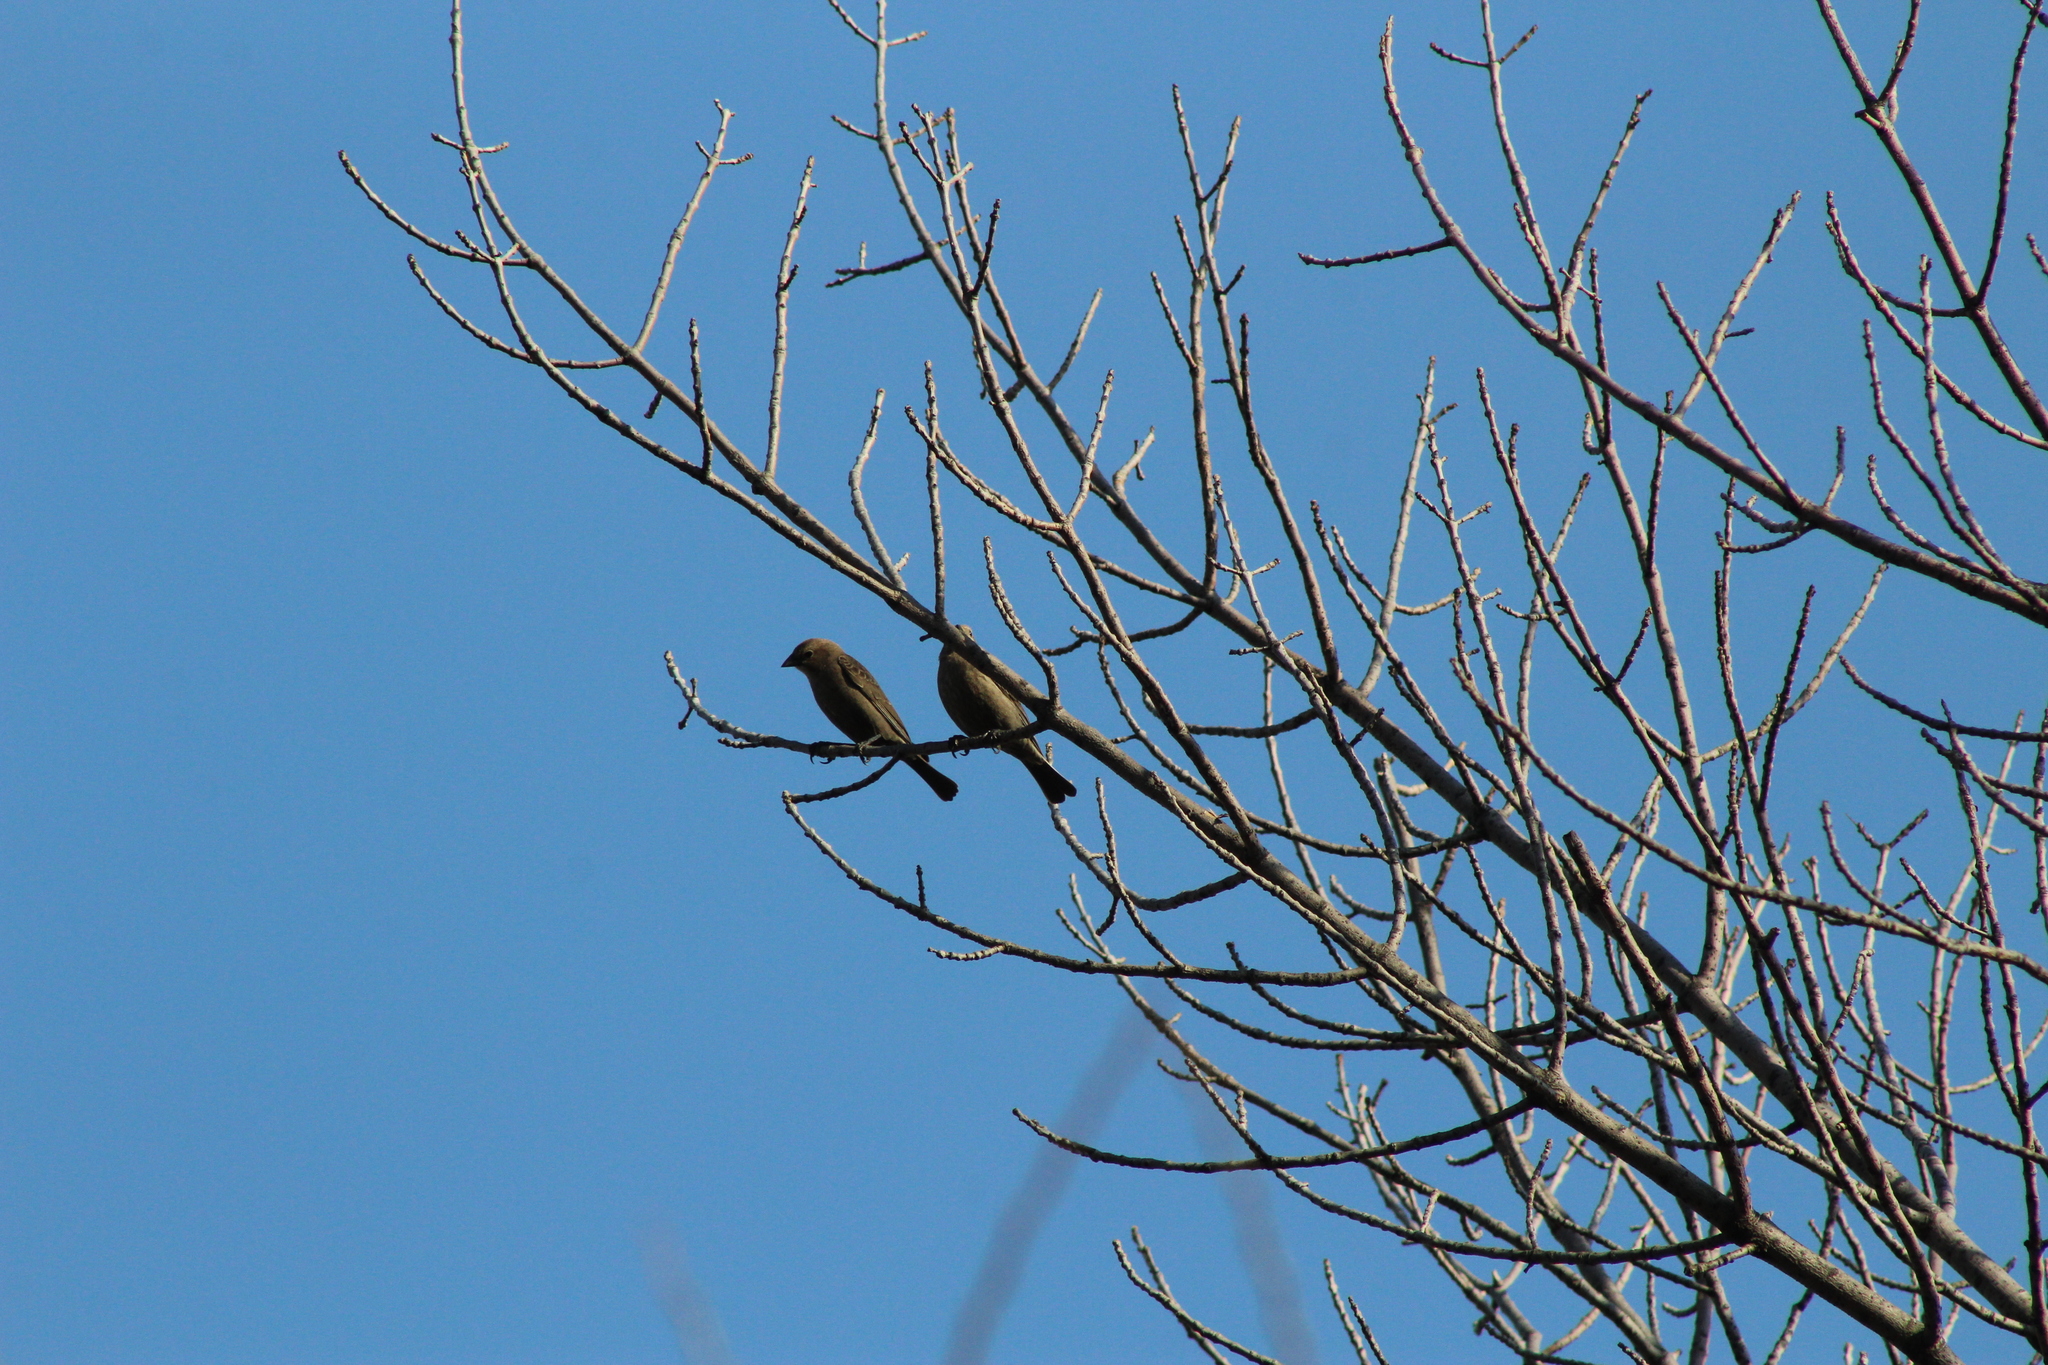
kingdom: Animalia
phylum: Chordata
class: Aves
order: Passeriformes
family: Icteridae
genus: Molothrus
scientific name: Molothrus ater
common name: Brown-headed cowbird
